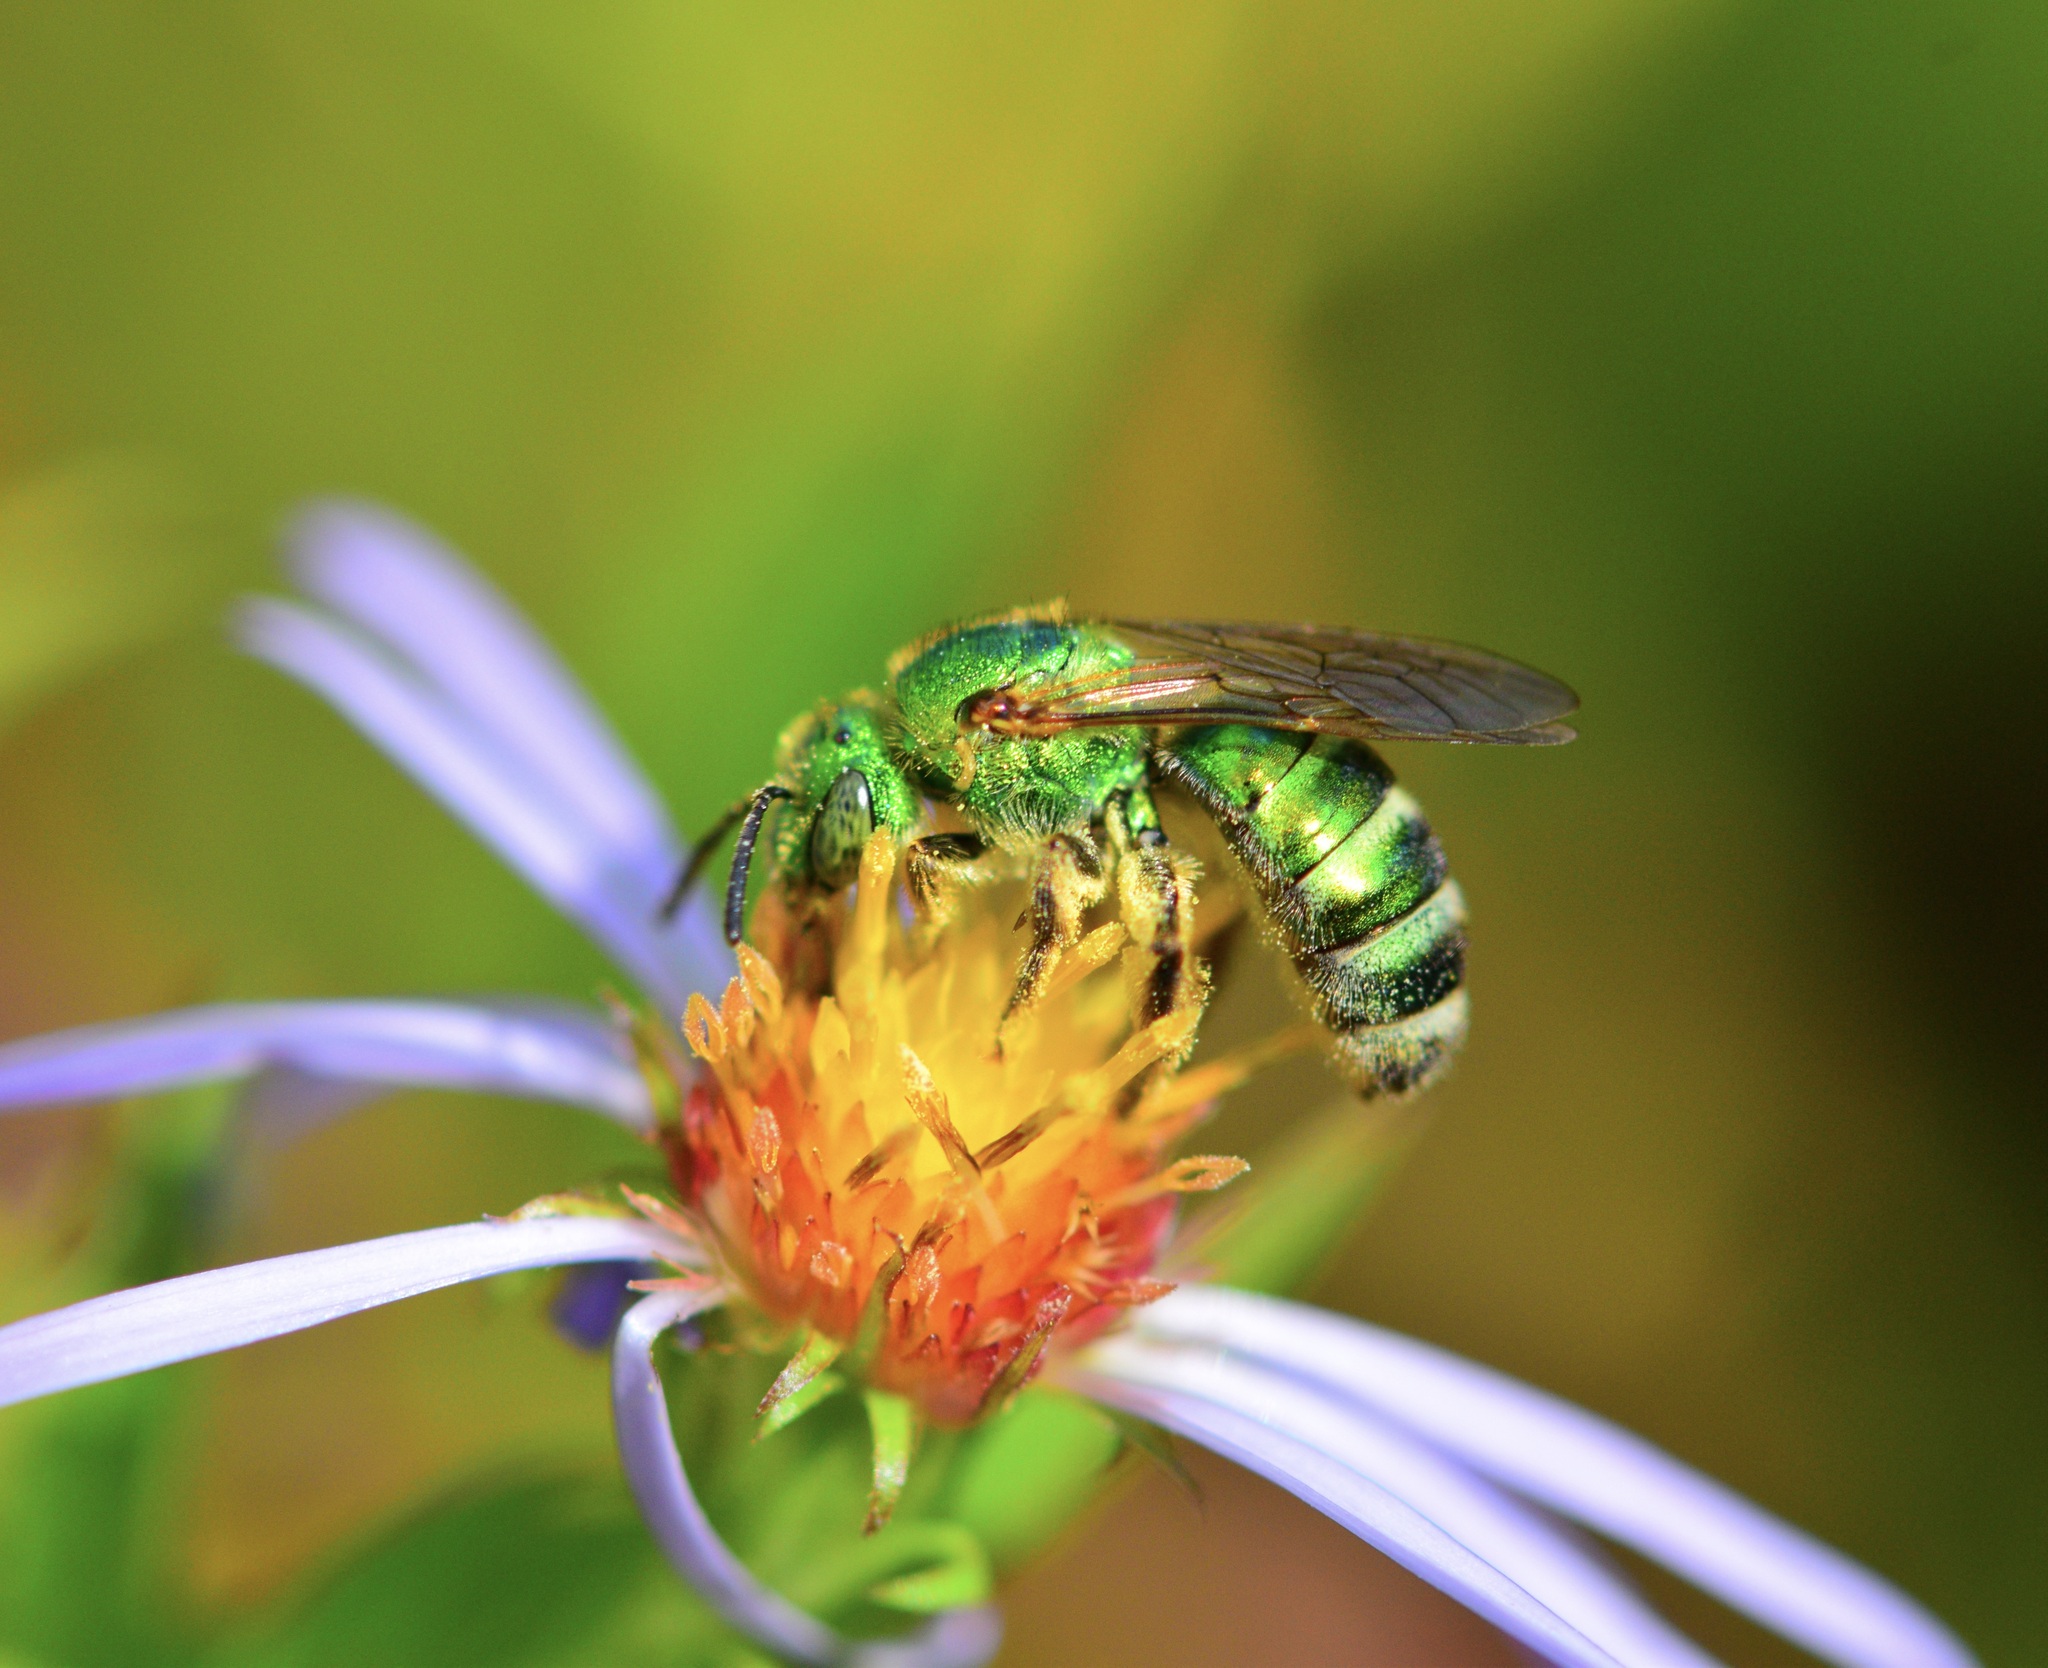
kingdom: Animalia
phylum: Arthropoda
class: Insecta
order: Hymenoptera
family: Halictidae
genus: Agapostemon
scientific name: Agapostemon sericeus
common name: Silky striped sweat bee
